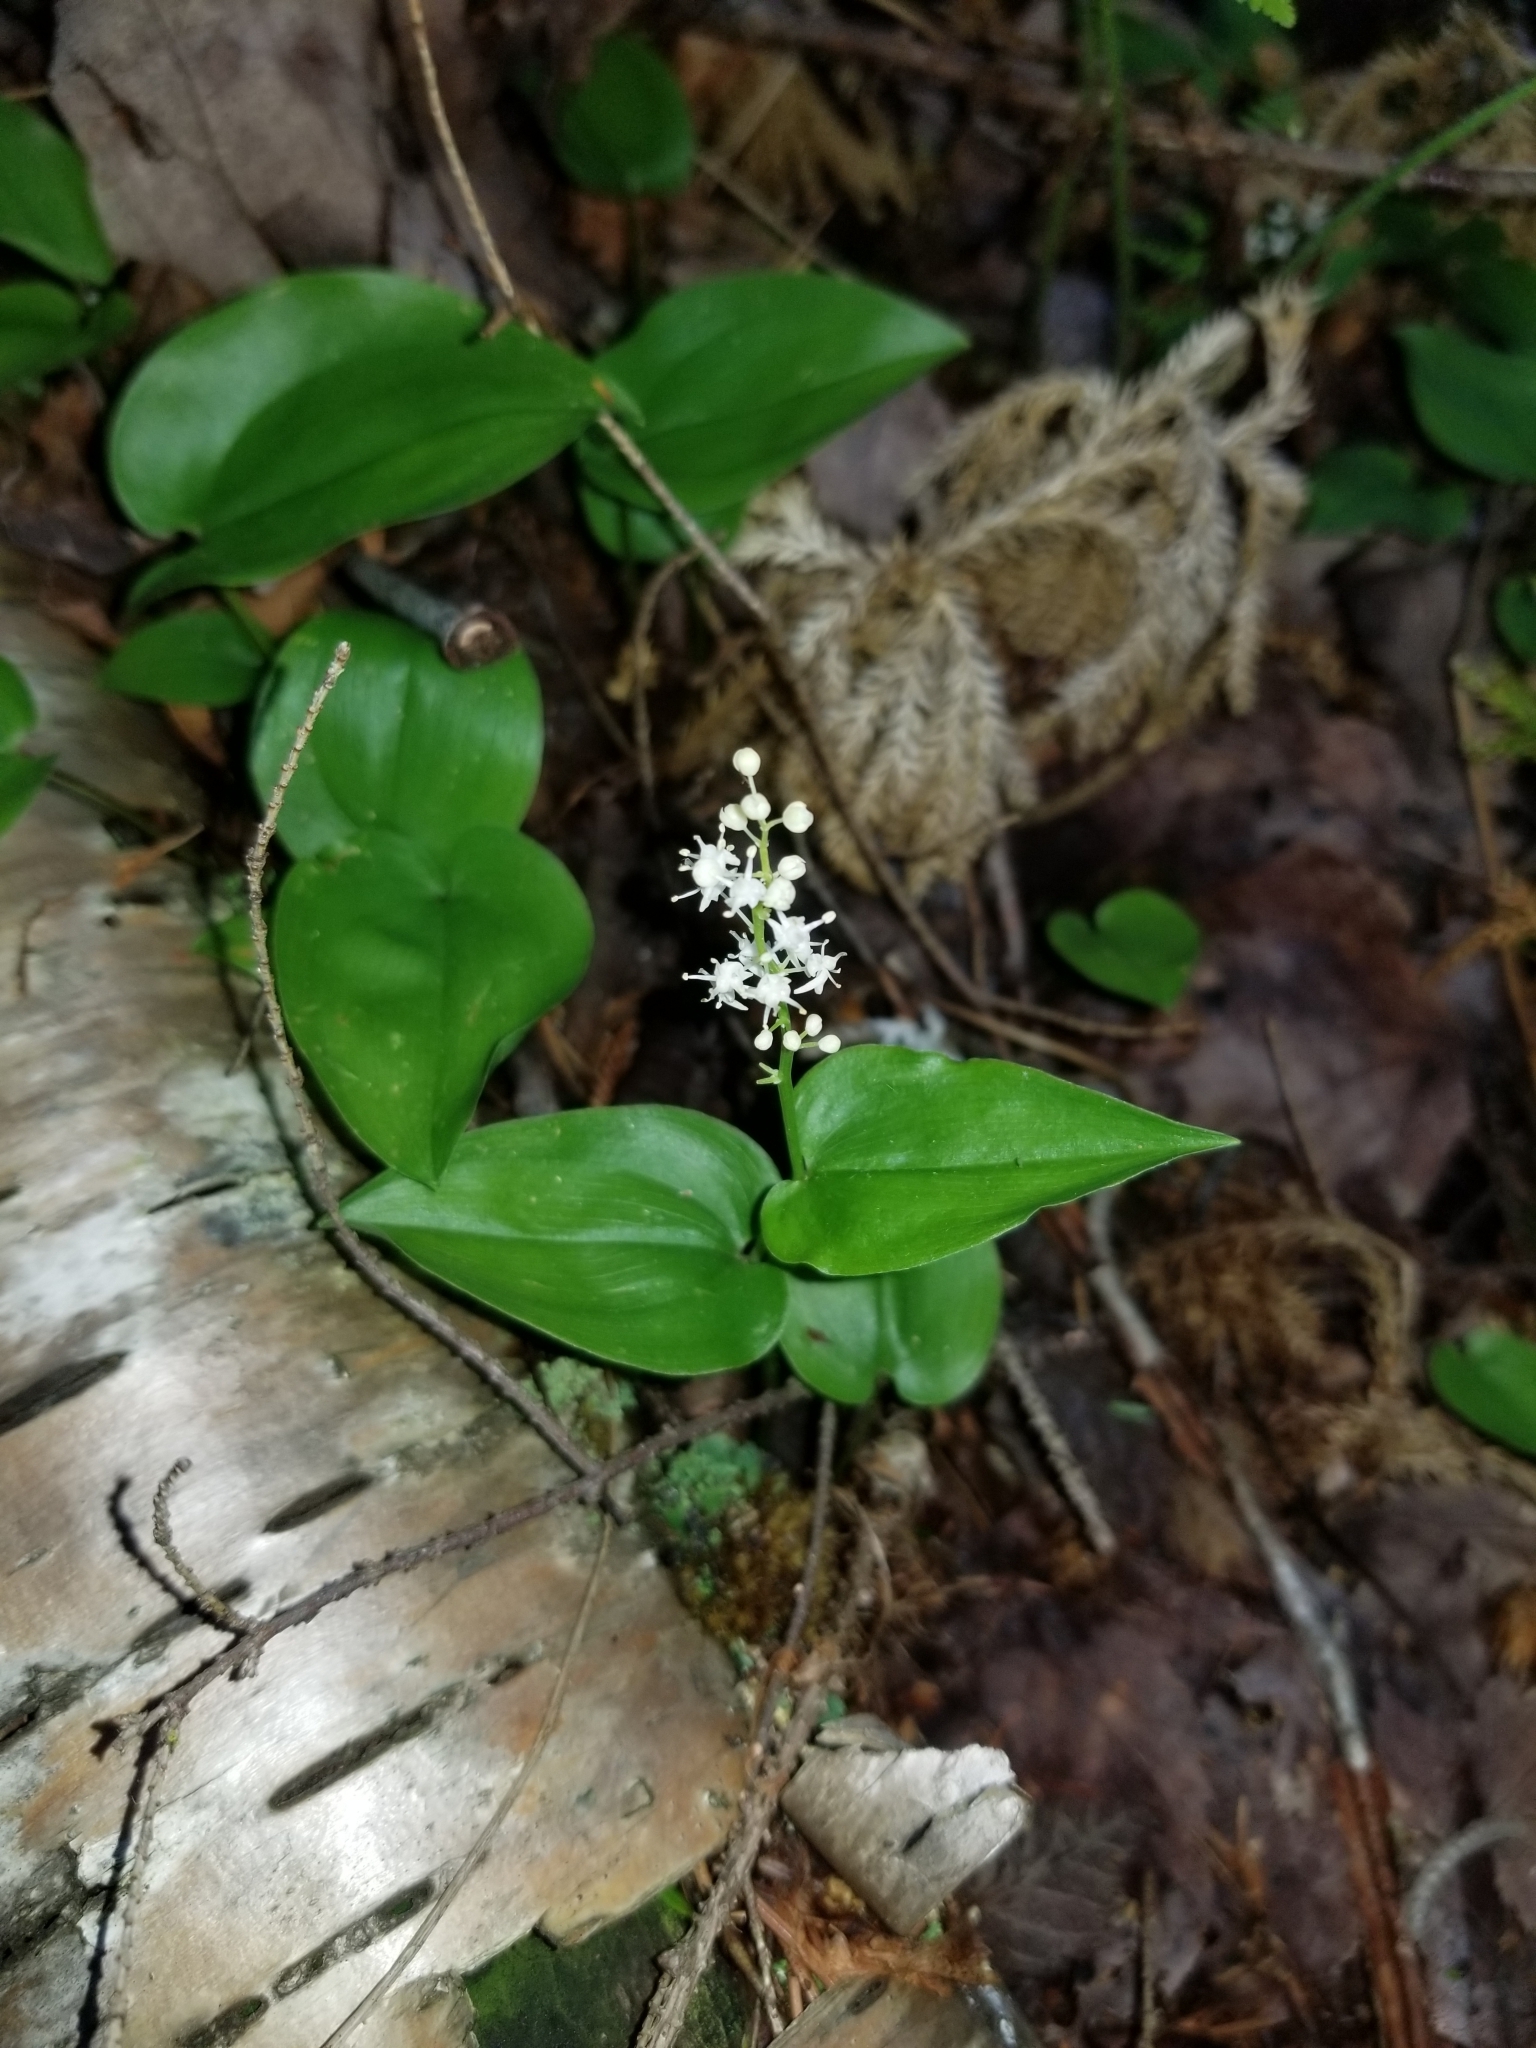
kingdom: Plantae
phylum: Tracheophyta
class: Liliopsida
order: Asparagales
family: Asparagaceae
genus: Maianthemum
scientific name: Maianthemum canadense
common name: False lily-of-the-valley
